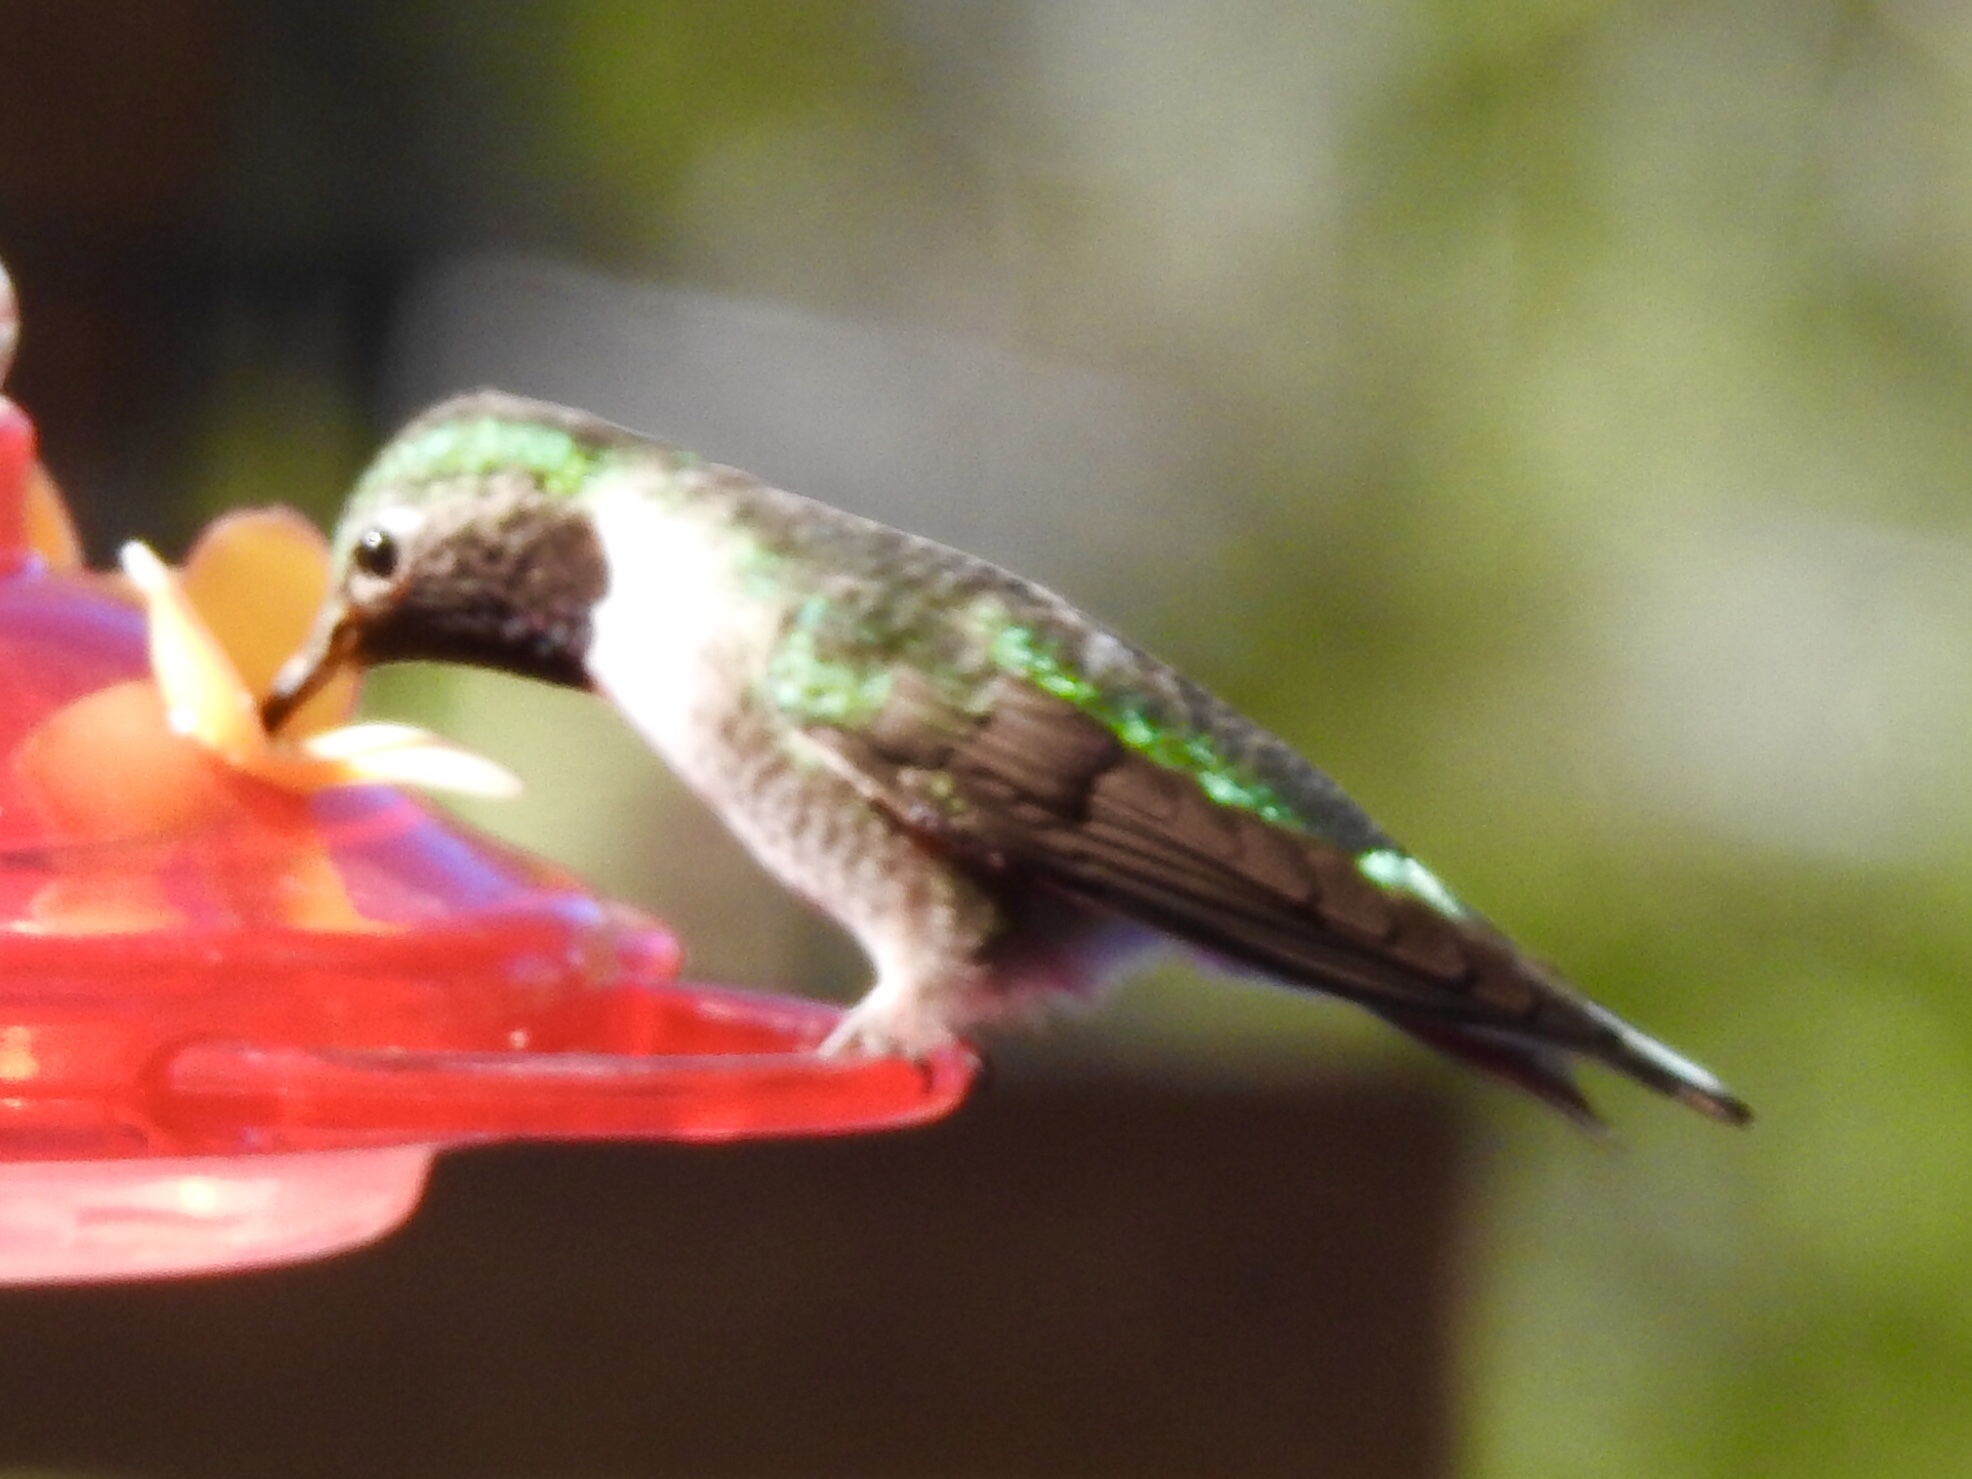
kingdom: Animalia
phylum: Chordata
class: Aves
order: Apodiformes
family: Trochilidae
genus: Selasphorus
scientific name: Selasphorus platycercus
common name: Broad-tailed hummingbird
